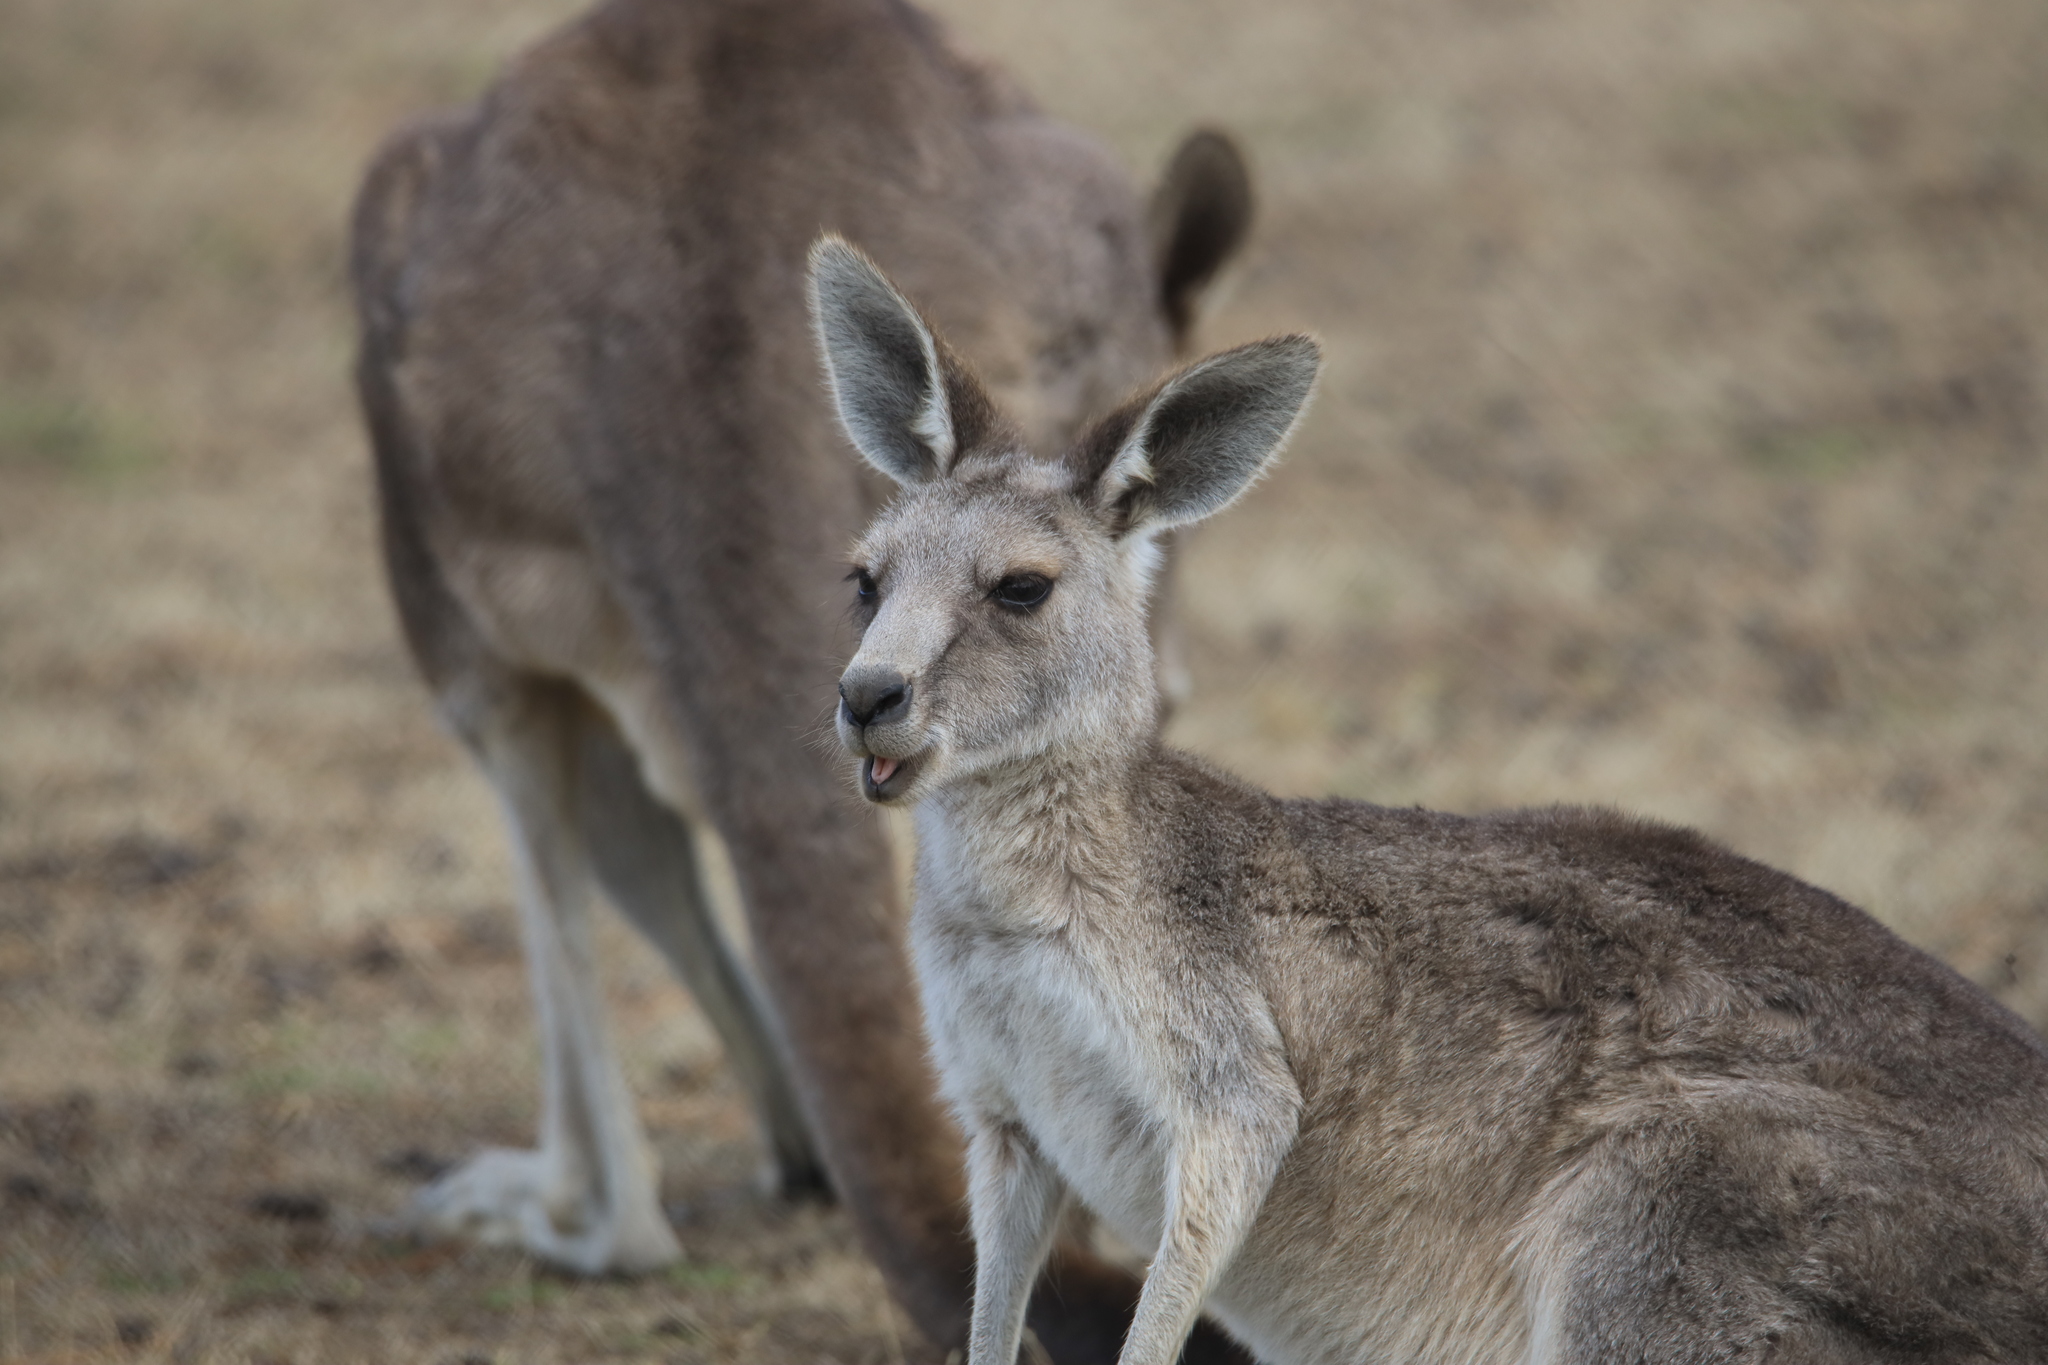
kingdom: Animalia
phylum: Chordata
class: Mammalia
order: Diprotodontia
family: Macropodidae
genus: Macropus
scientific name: Macropus giganteus
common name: Eastern grey kangaroo
